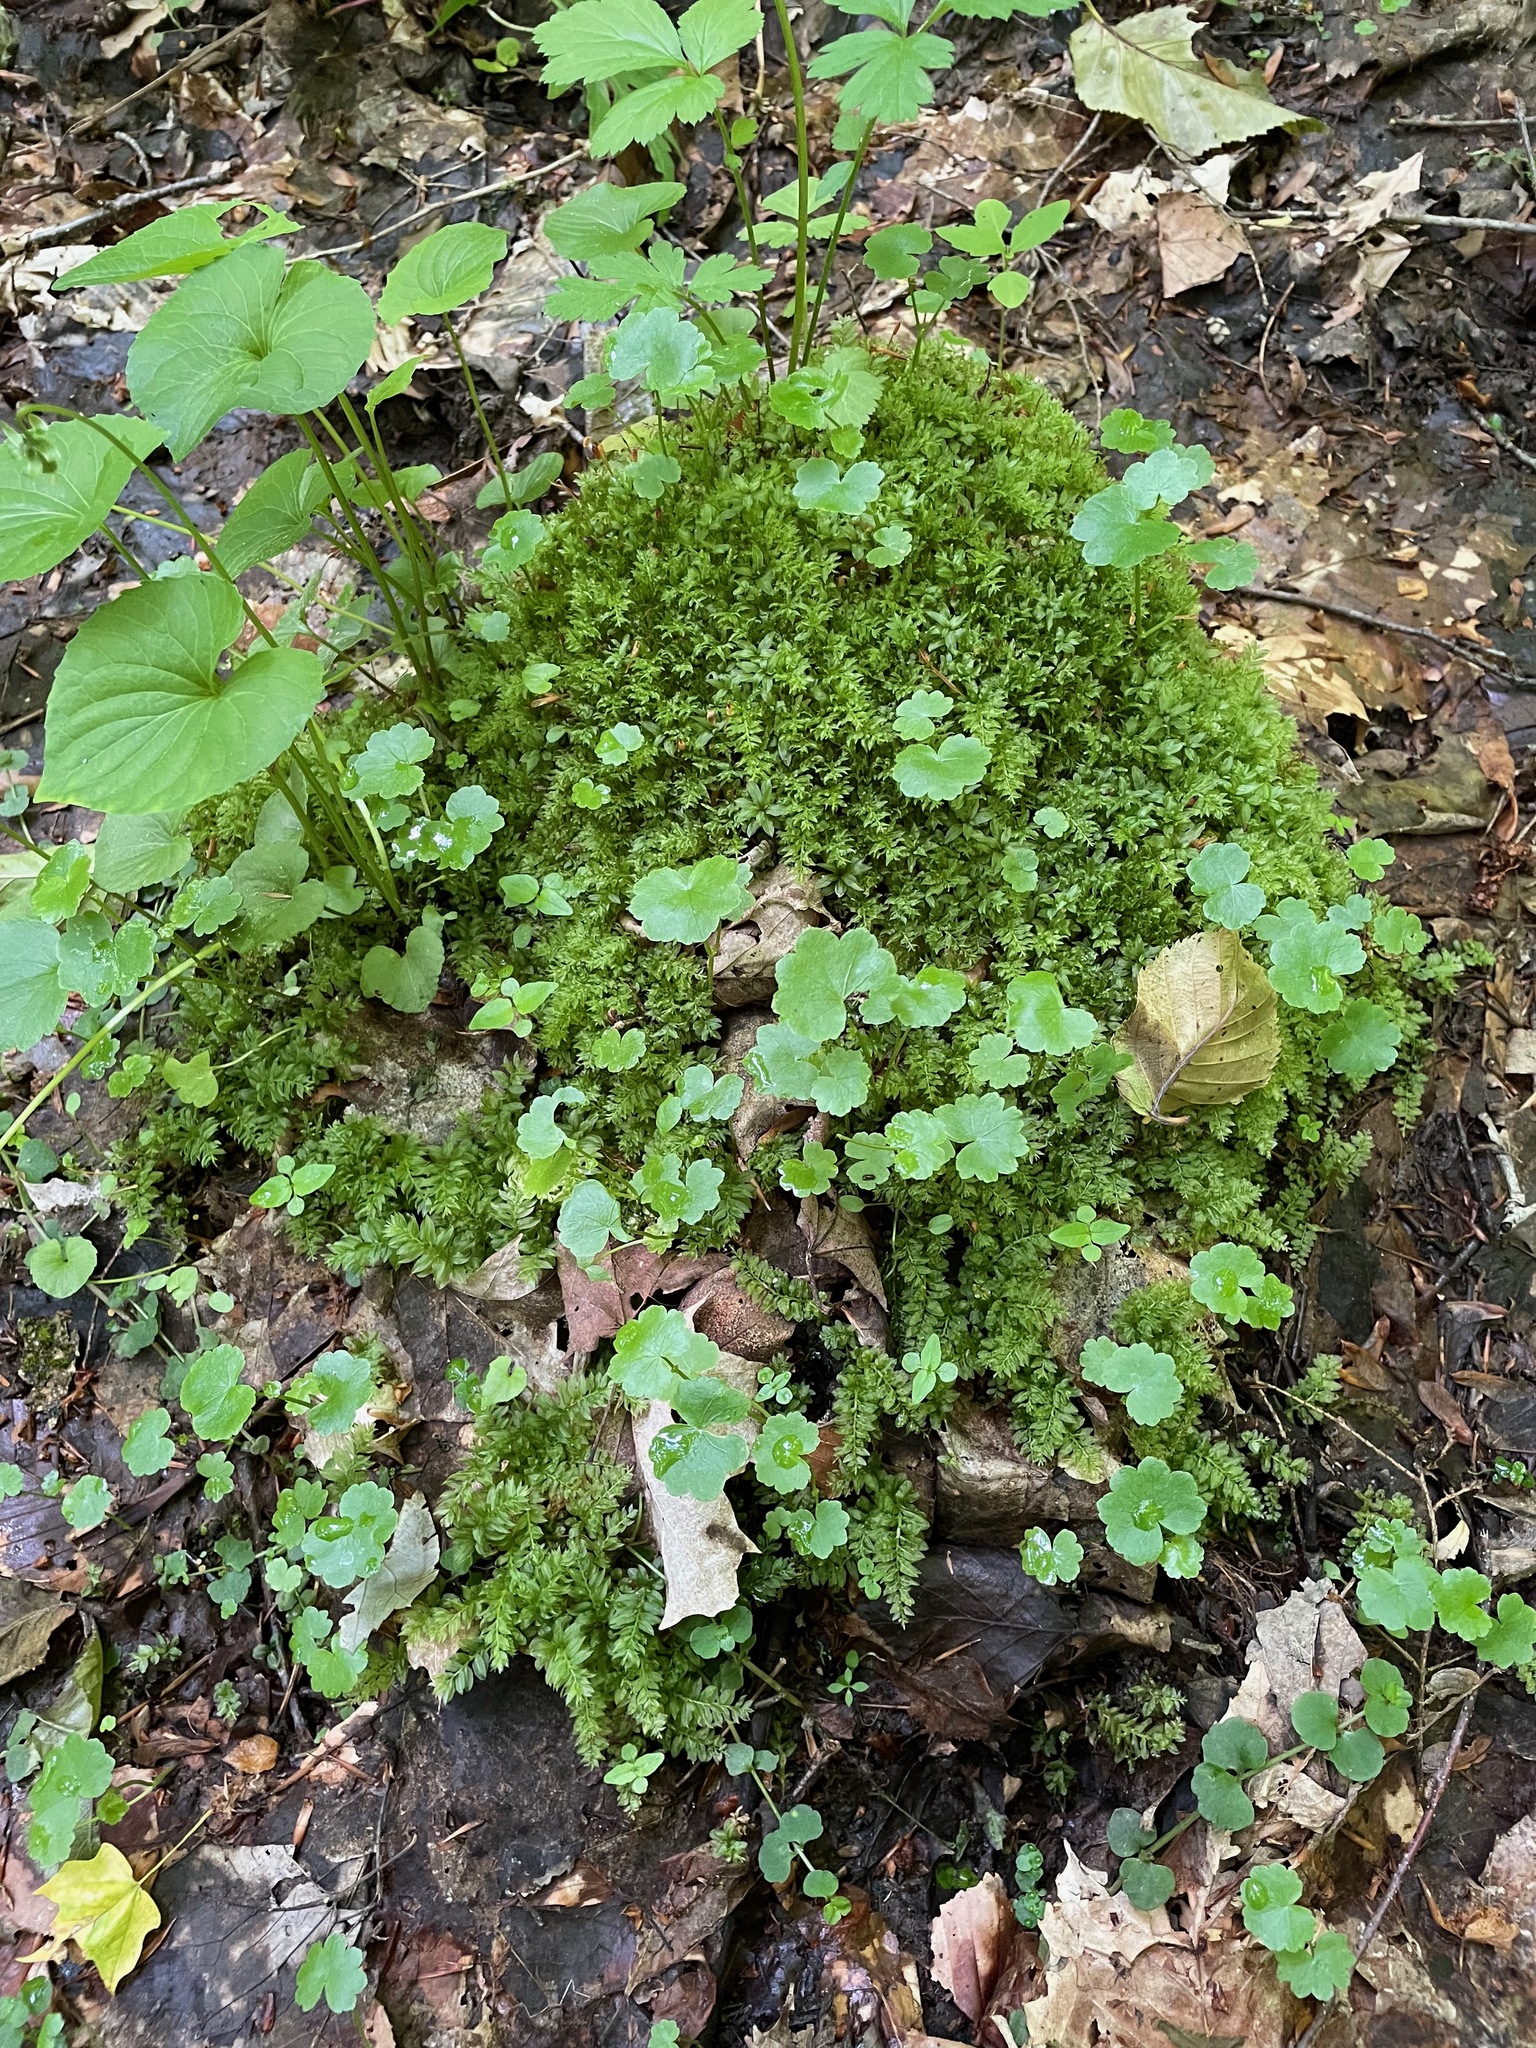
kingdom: Plantae
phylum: Tracheophyta
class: Magnoliopsida
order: Apiales
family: Araliaceae
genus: Hydrocotyle
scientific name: Hydrocotyle americana
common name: American water-pennywort
